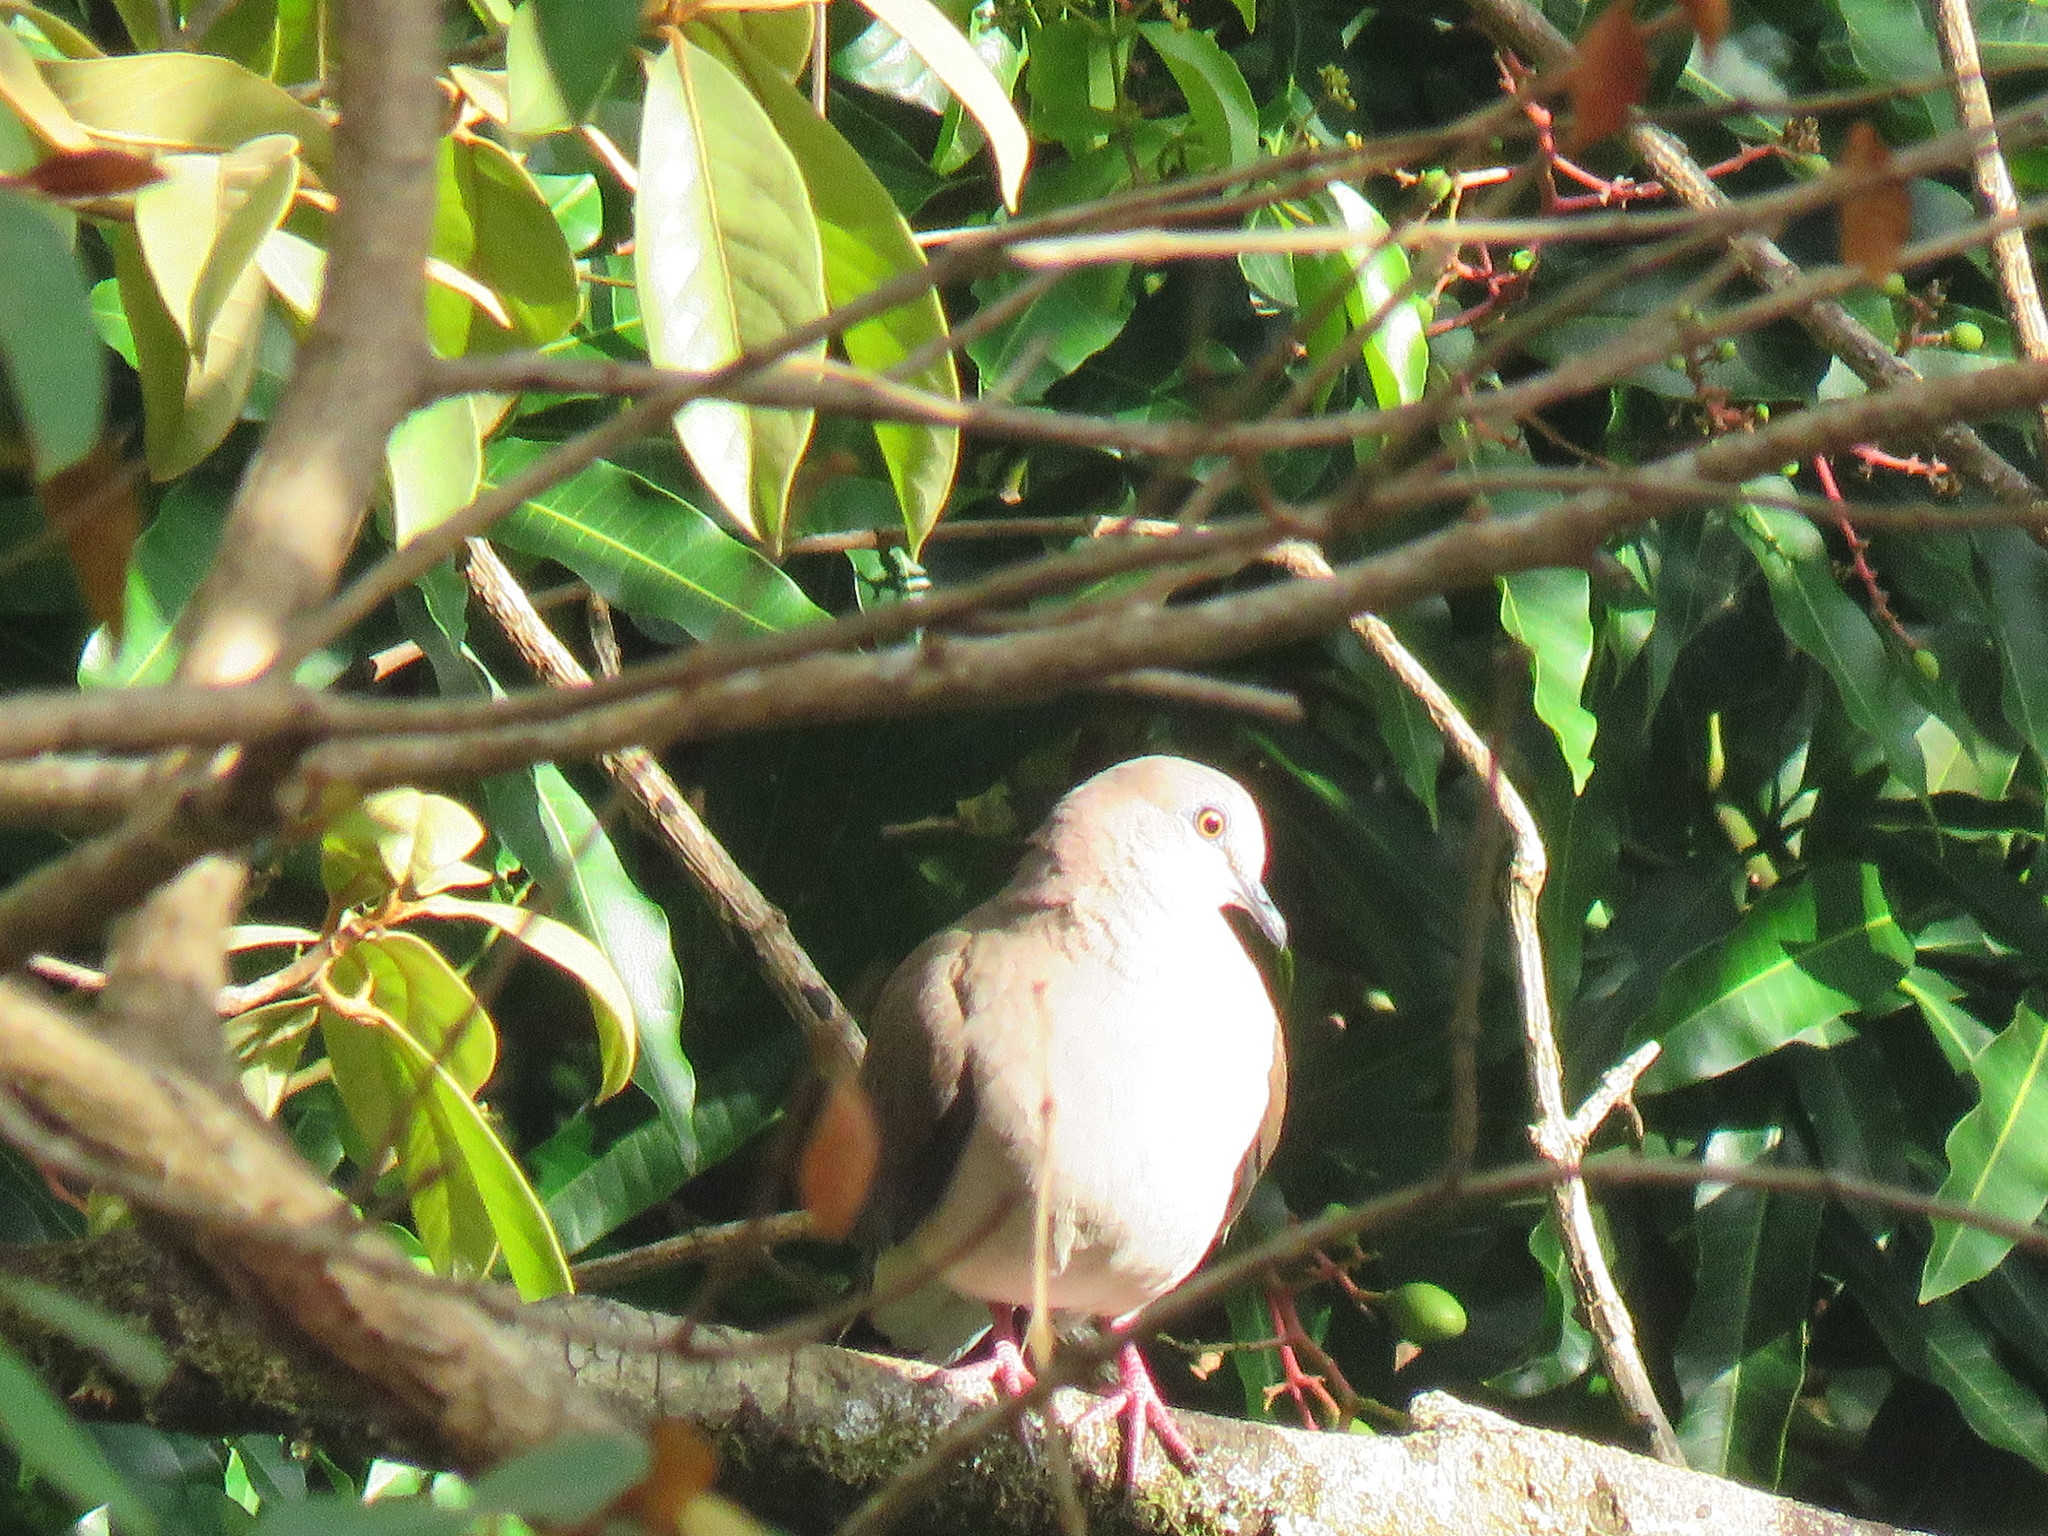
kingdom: Animalia
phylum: Chordata
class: Aves
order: Columbiformes
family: Columbidae
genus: Leptotila
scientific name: Leptotila verreauxi
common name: White-tipped dove
